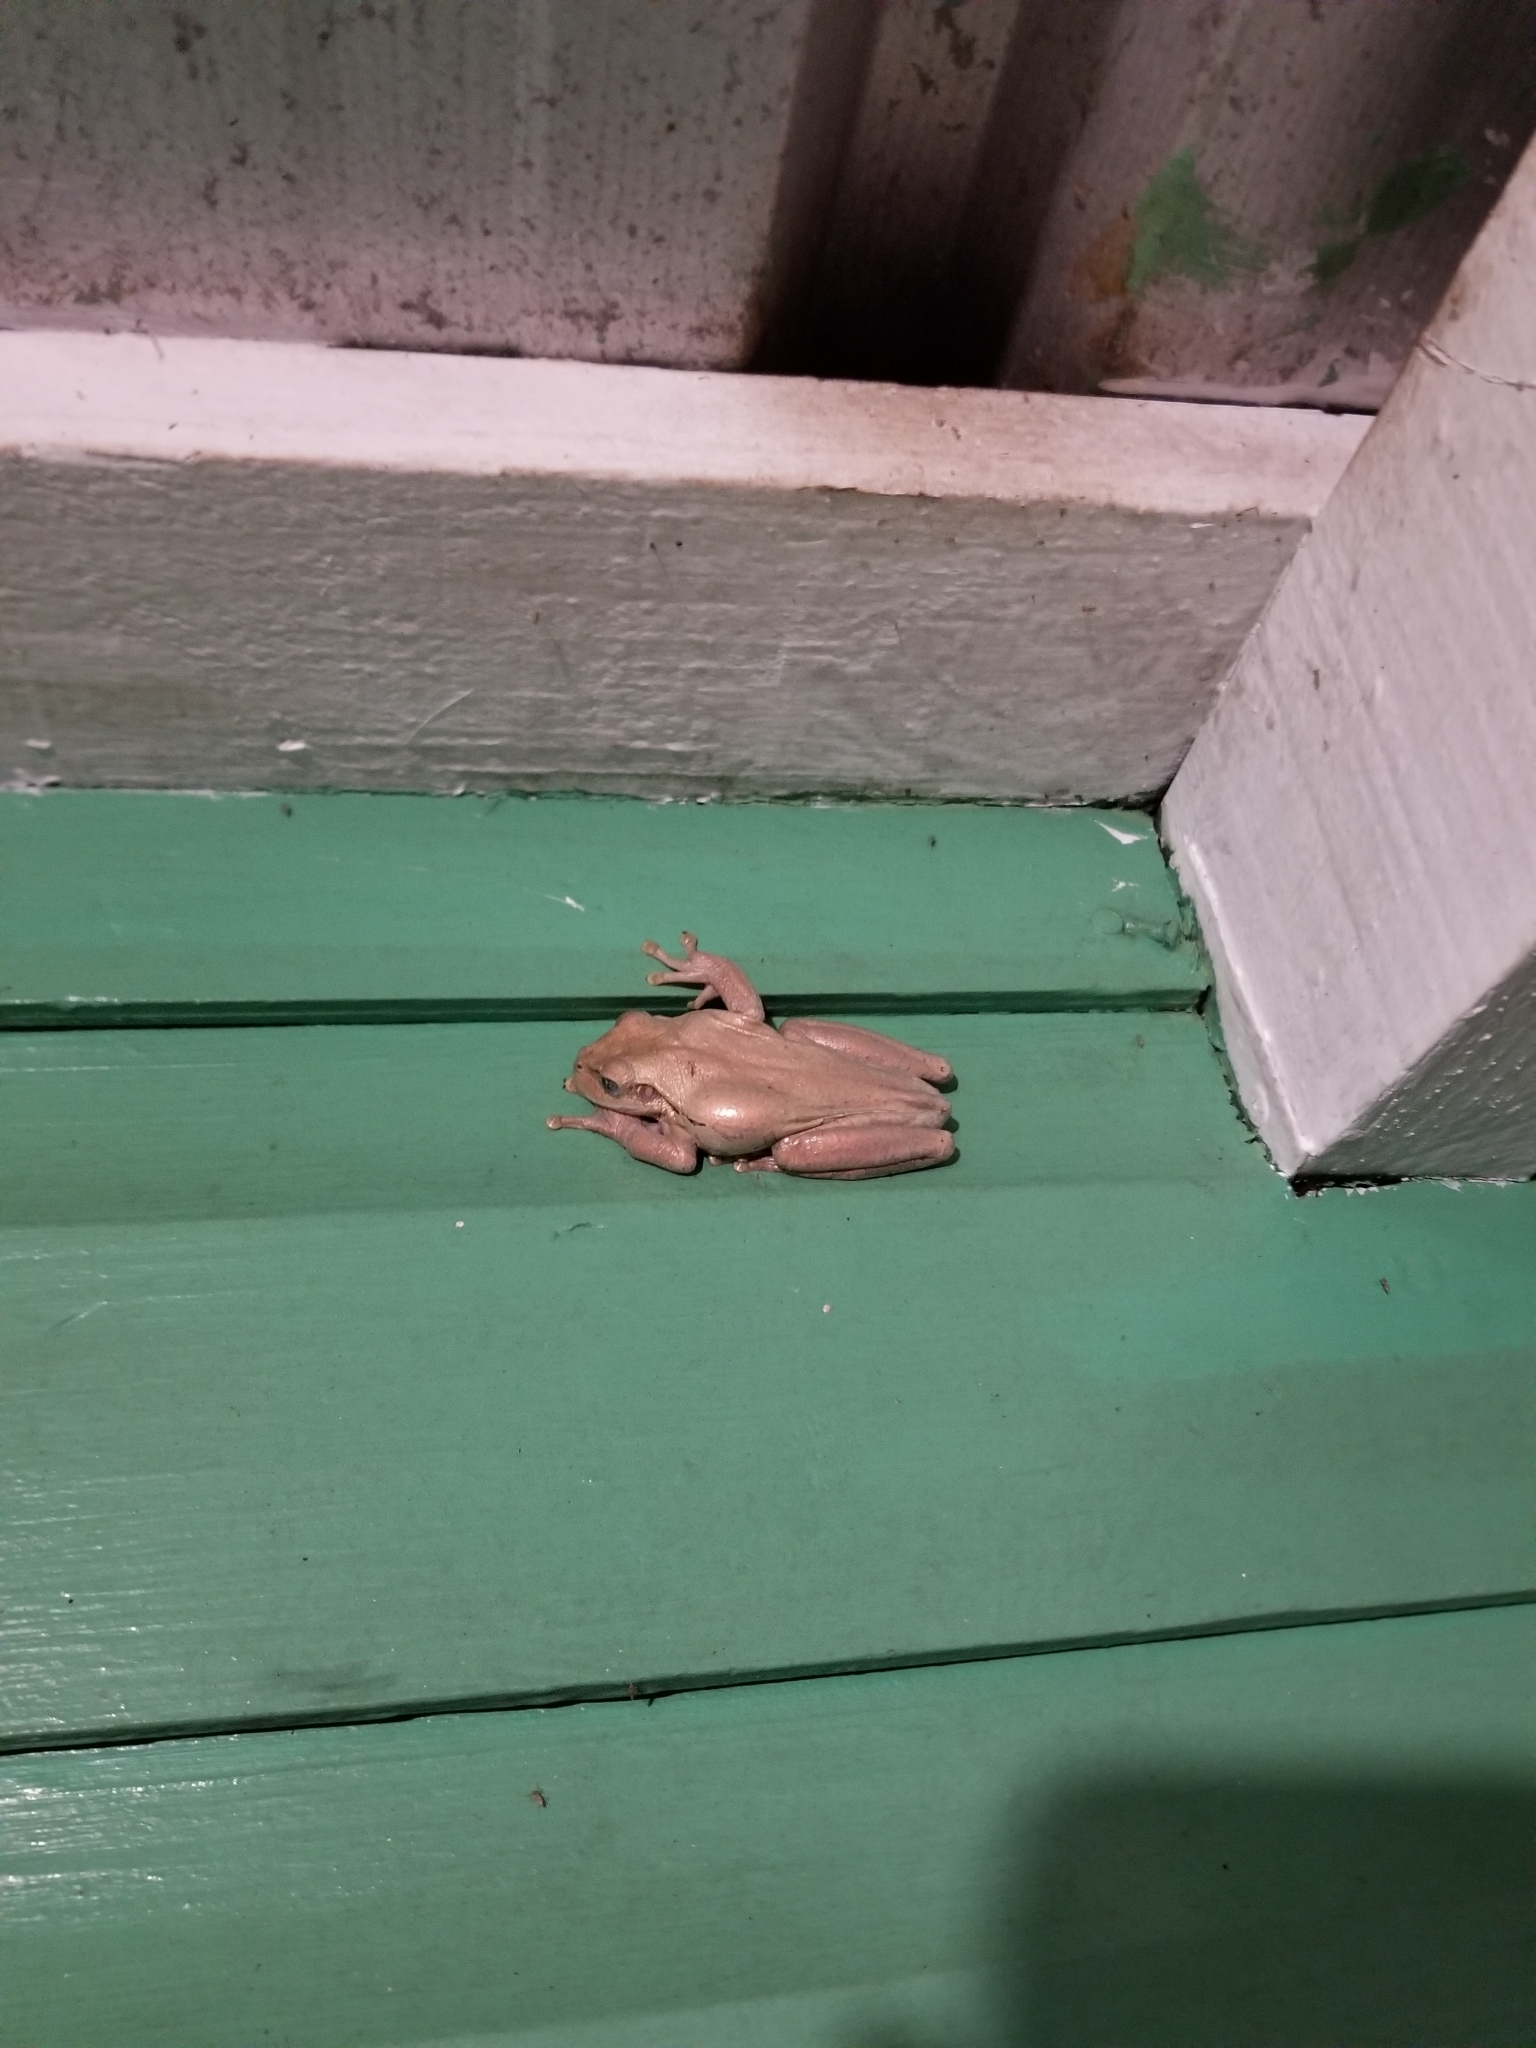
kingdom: Animalia
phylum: Chordata
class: Amphibia
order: Anura
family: Hylidae
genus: Osteopilus
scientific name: Osteopilus dominicensis
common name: Hispaniolan common treefrog
